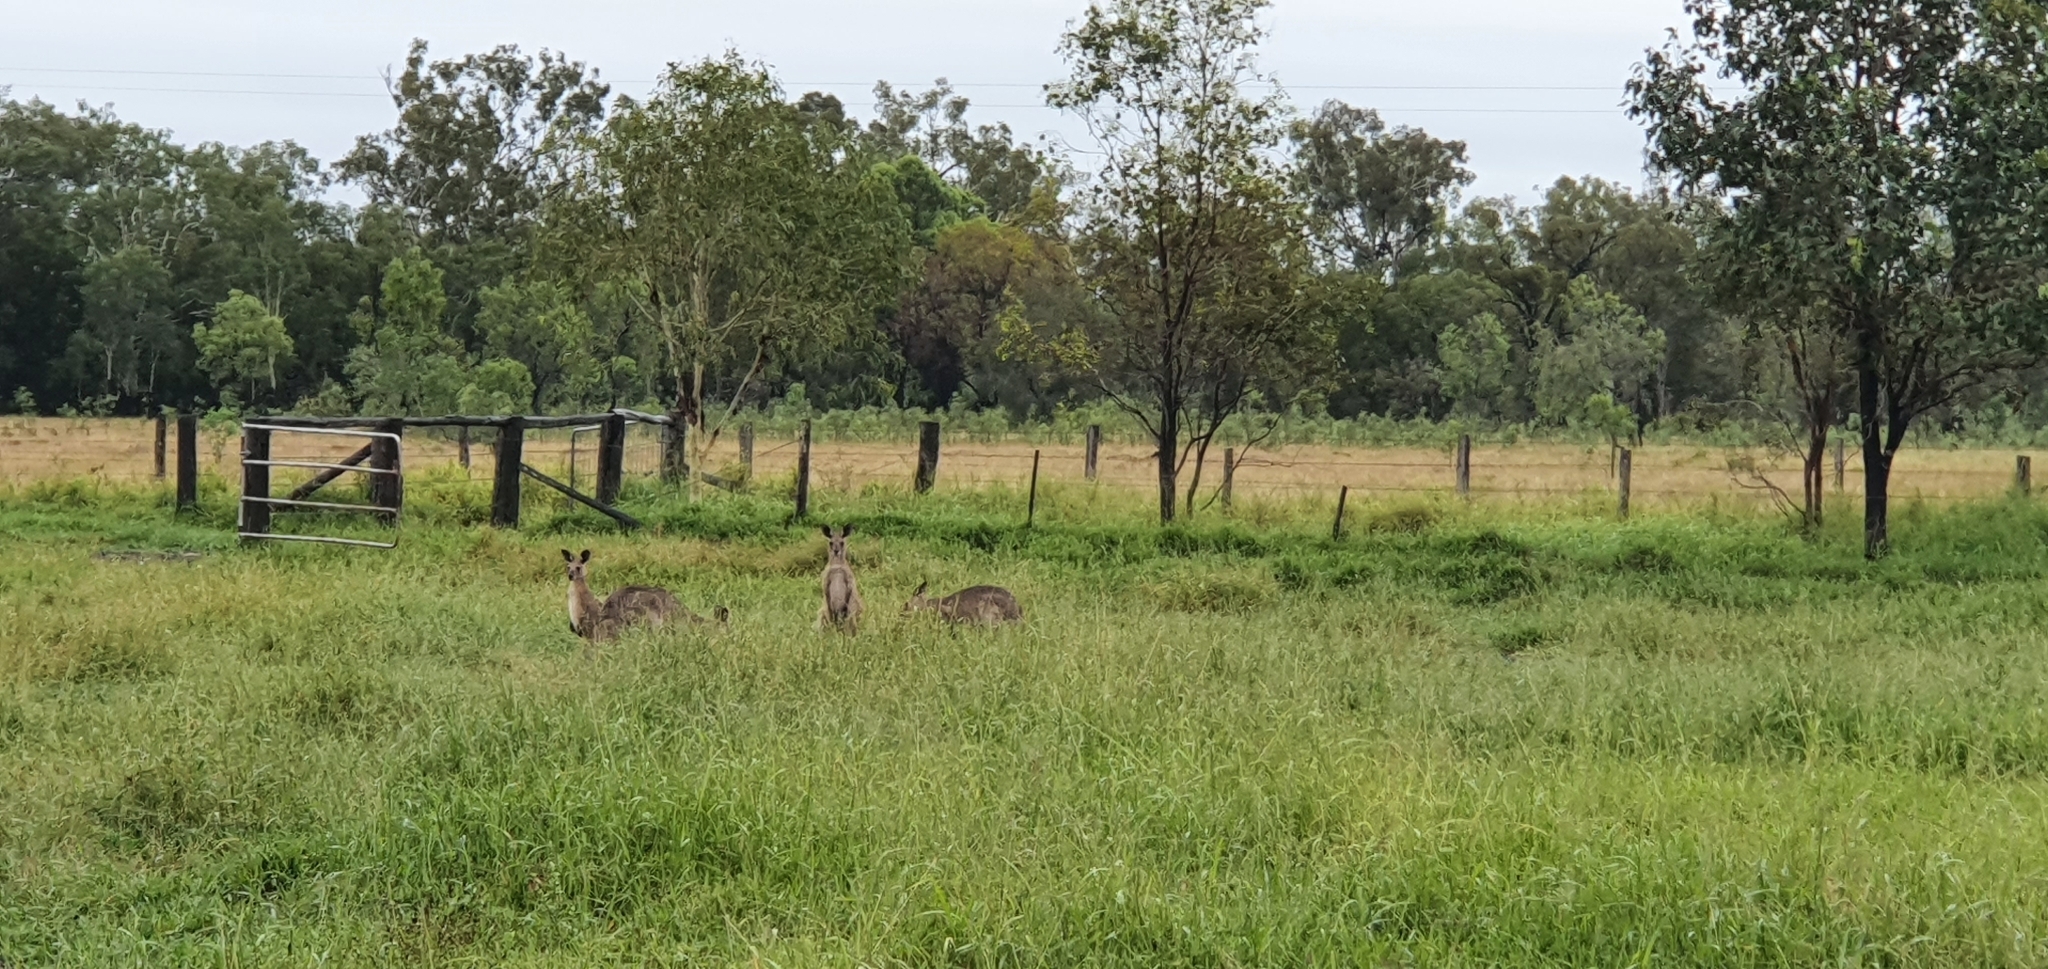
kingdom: Animalia
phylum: Chordata
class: Mammalia
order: Diprotodontia
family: Macropodidae
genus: Macropus
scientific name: Macropus giganteus
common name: Eastern grey kangaroo
